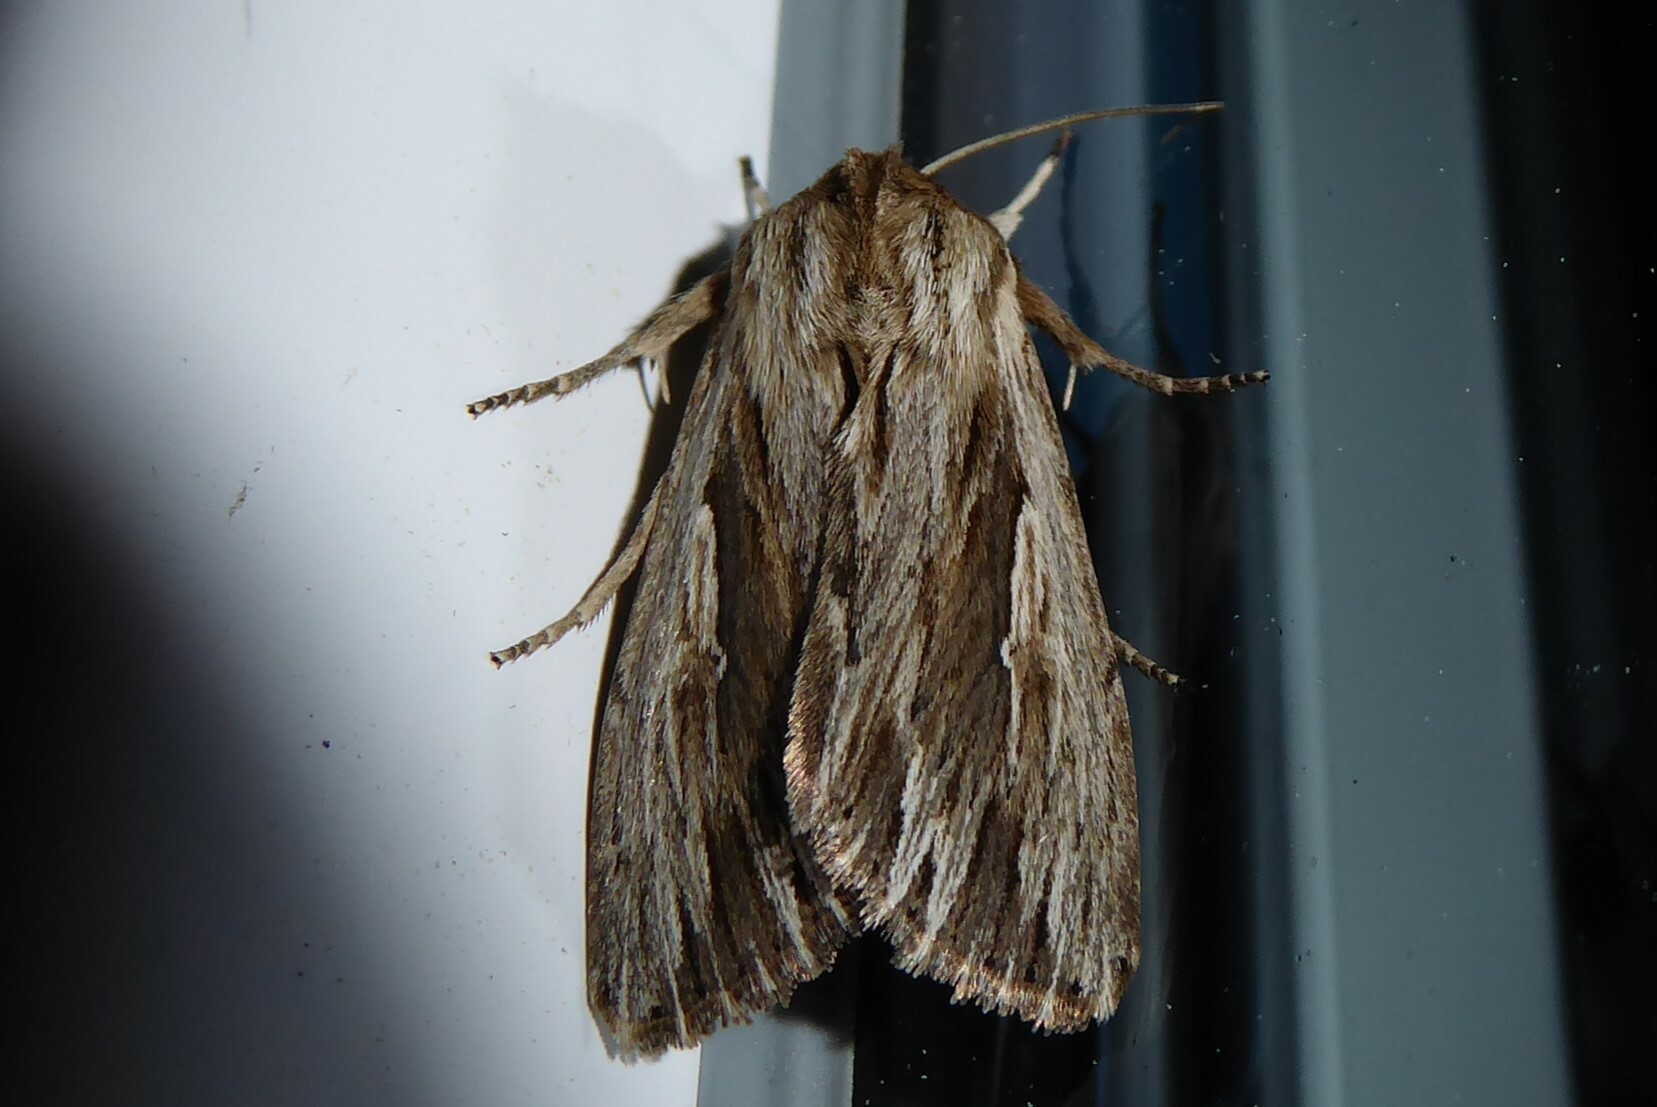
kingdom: Animalia
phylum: Arthropoda
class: Insecta
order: Lepidoptera
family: Noctuidae
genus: Persectania
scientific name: Persectania aversa
